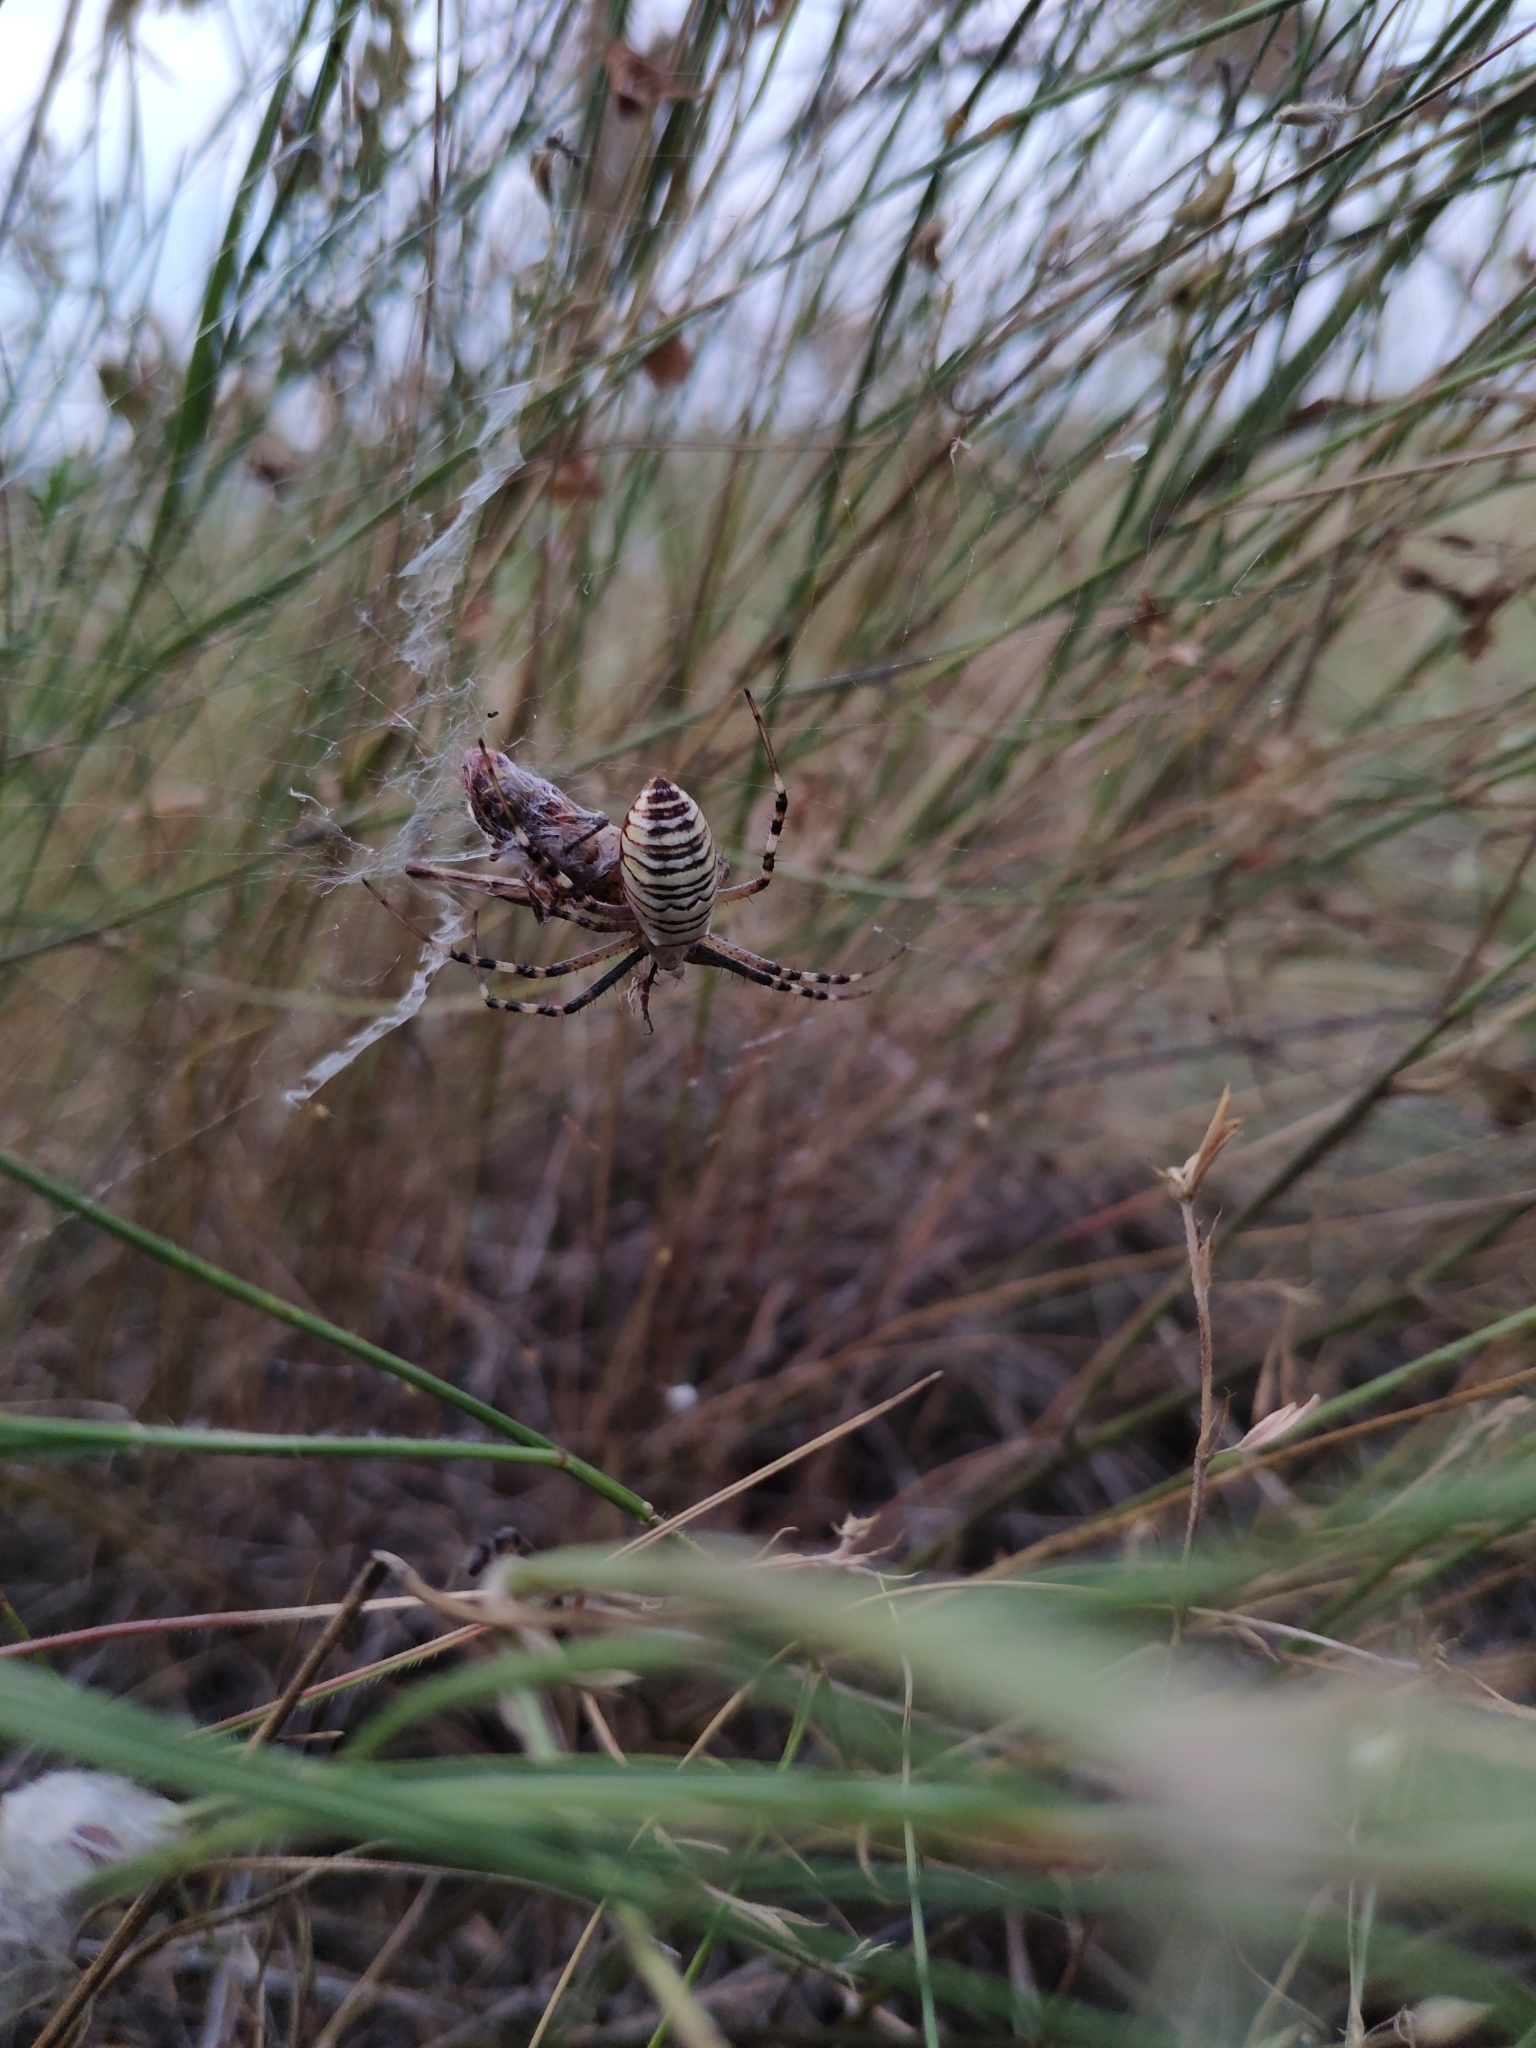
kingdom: Animalia
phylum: Arthropoda
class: Arachnida
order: Araneae
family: Araneidae
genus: Argiope
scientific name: Argiope bruennichi
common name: Wasp spider
